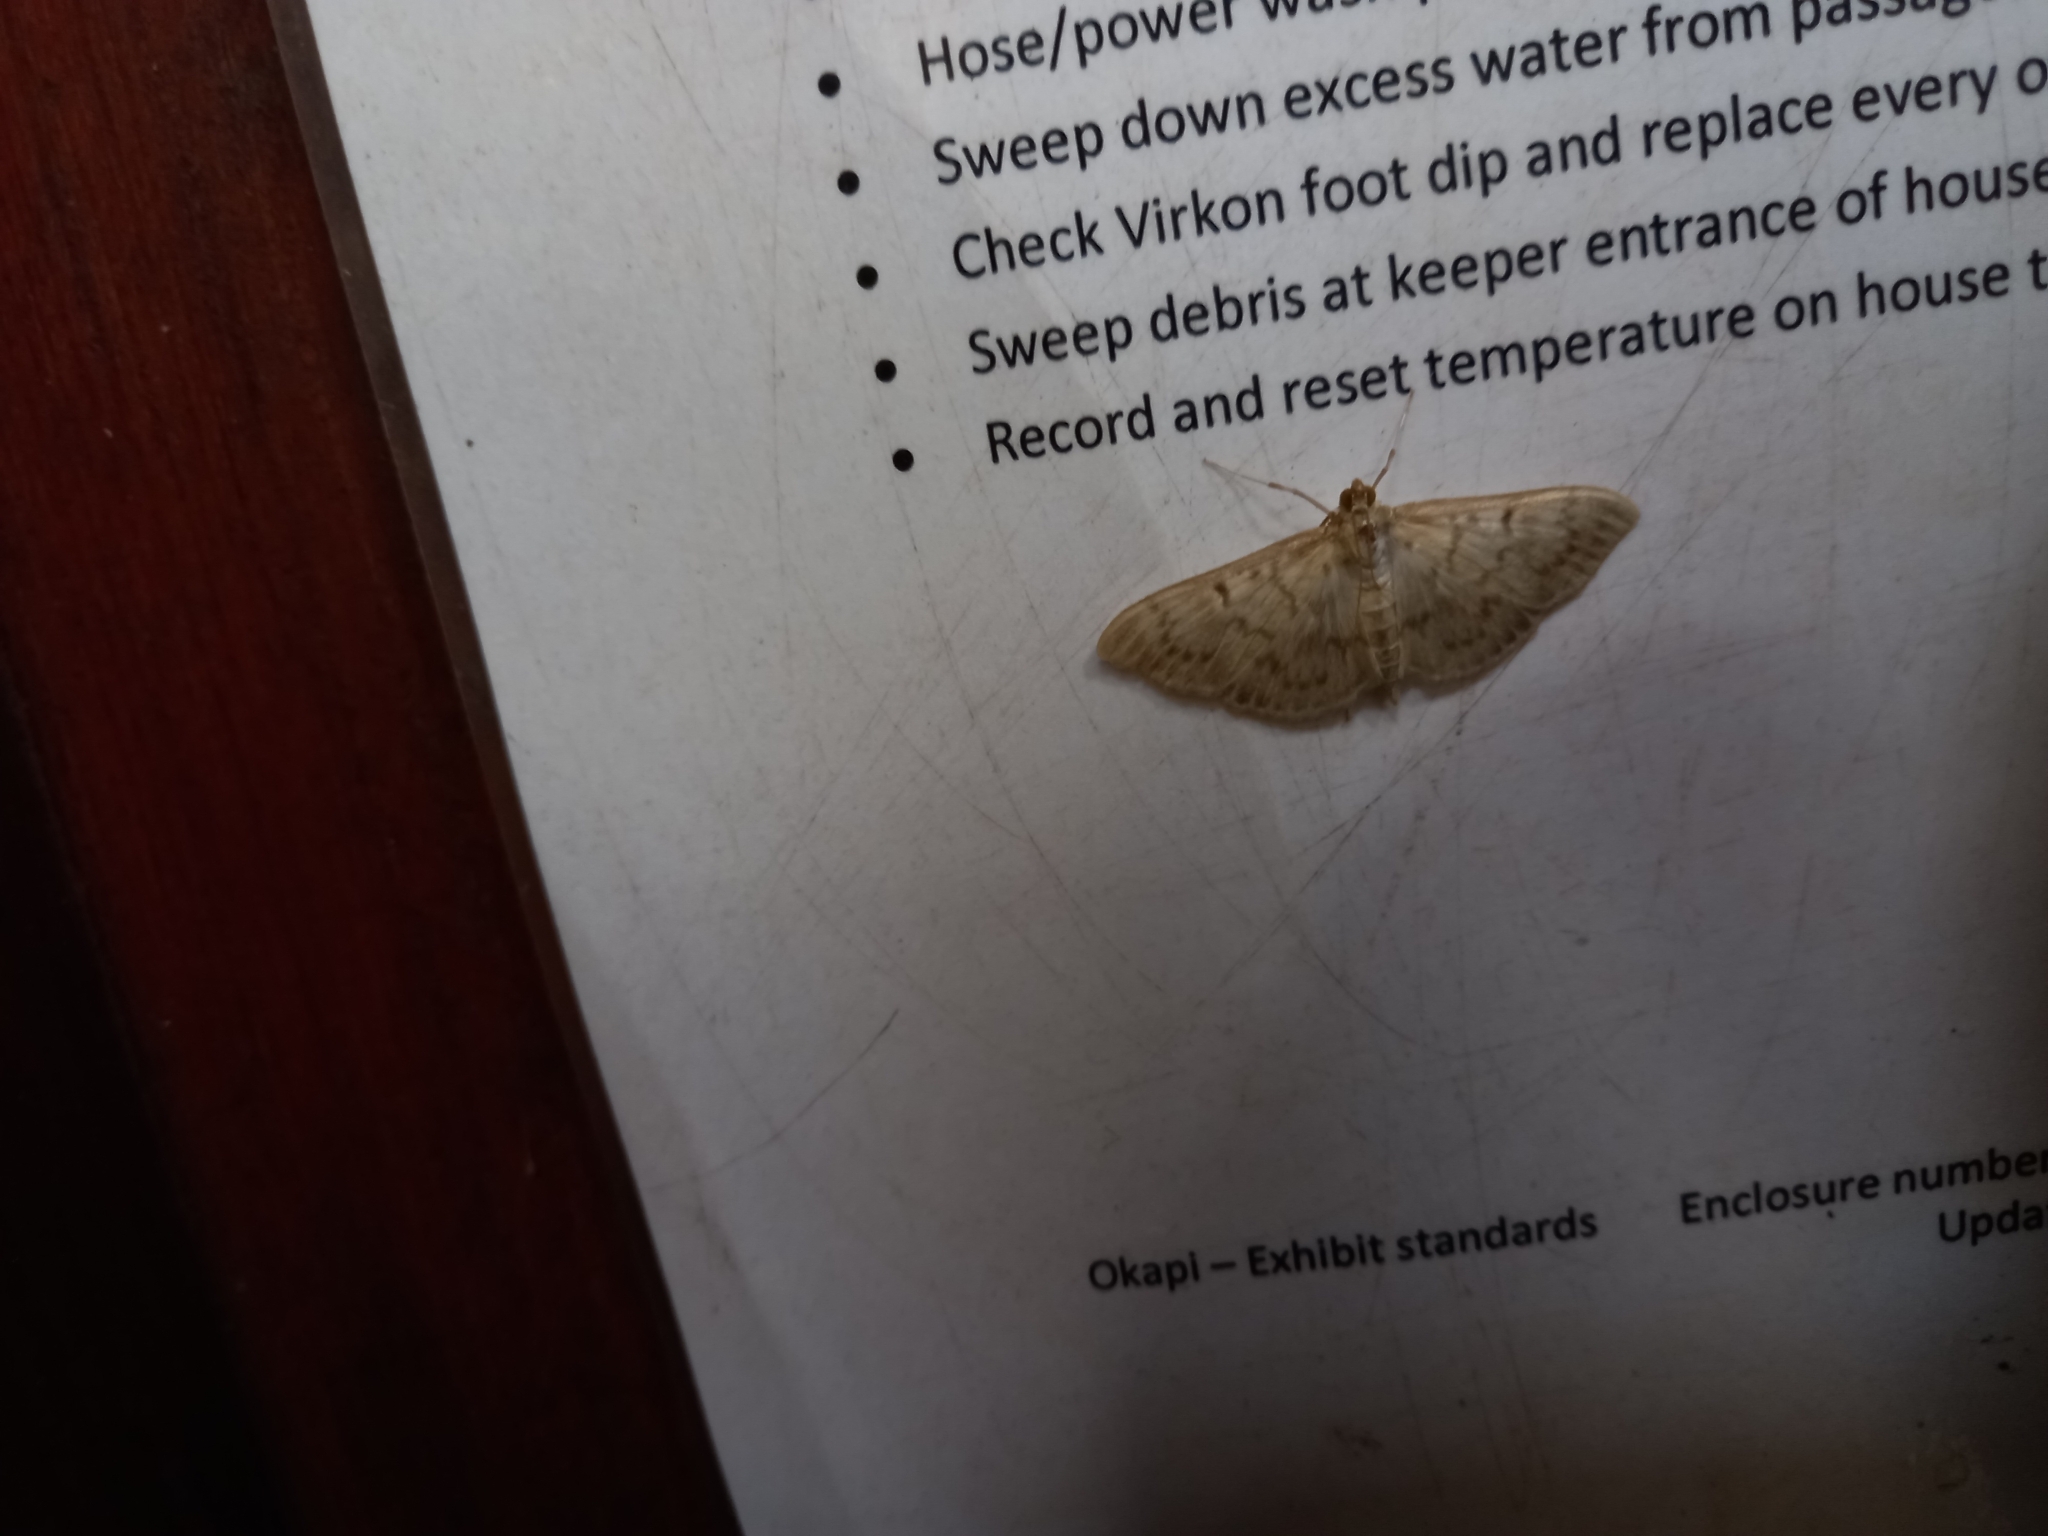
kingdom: Animalia
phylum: Arthropoda
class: Insecta
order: Lepidoptera
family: Crambidae
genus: Patania
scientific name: Patania ruralis
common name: Mother of pearl
